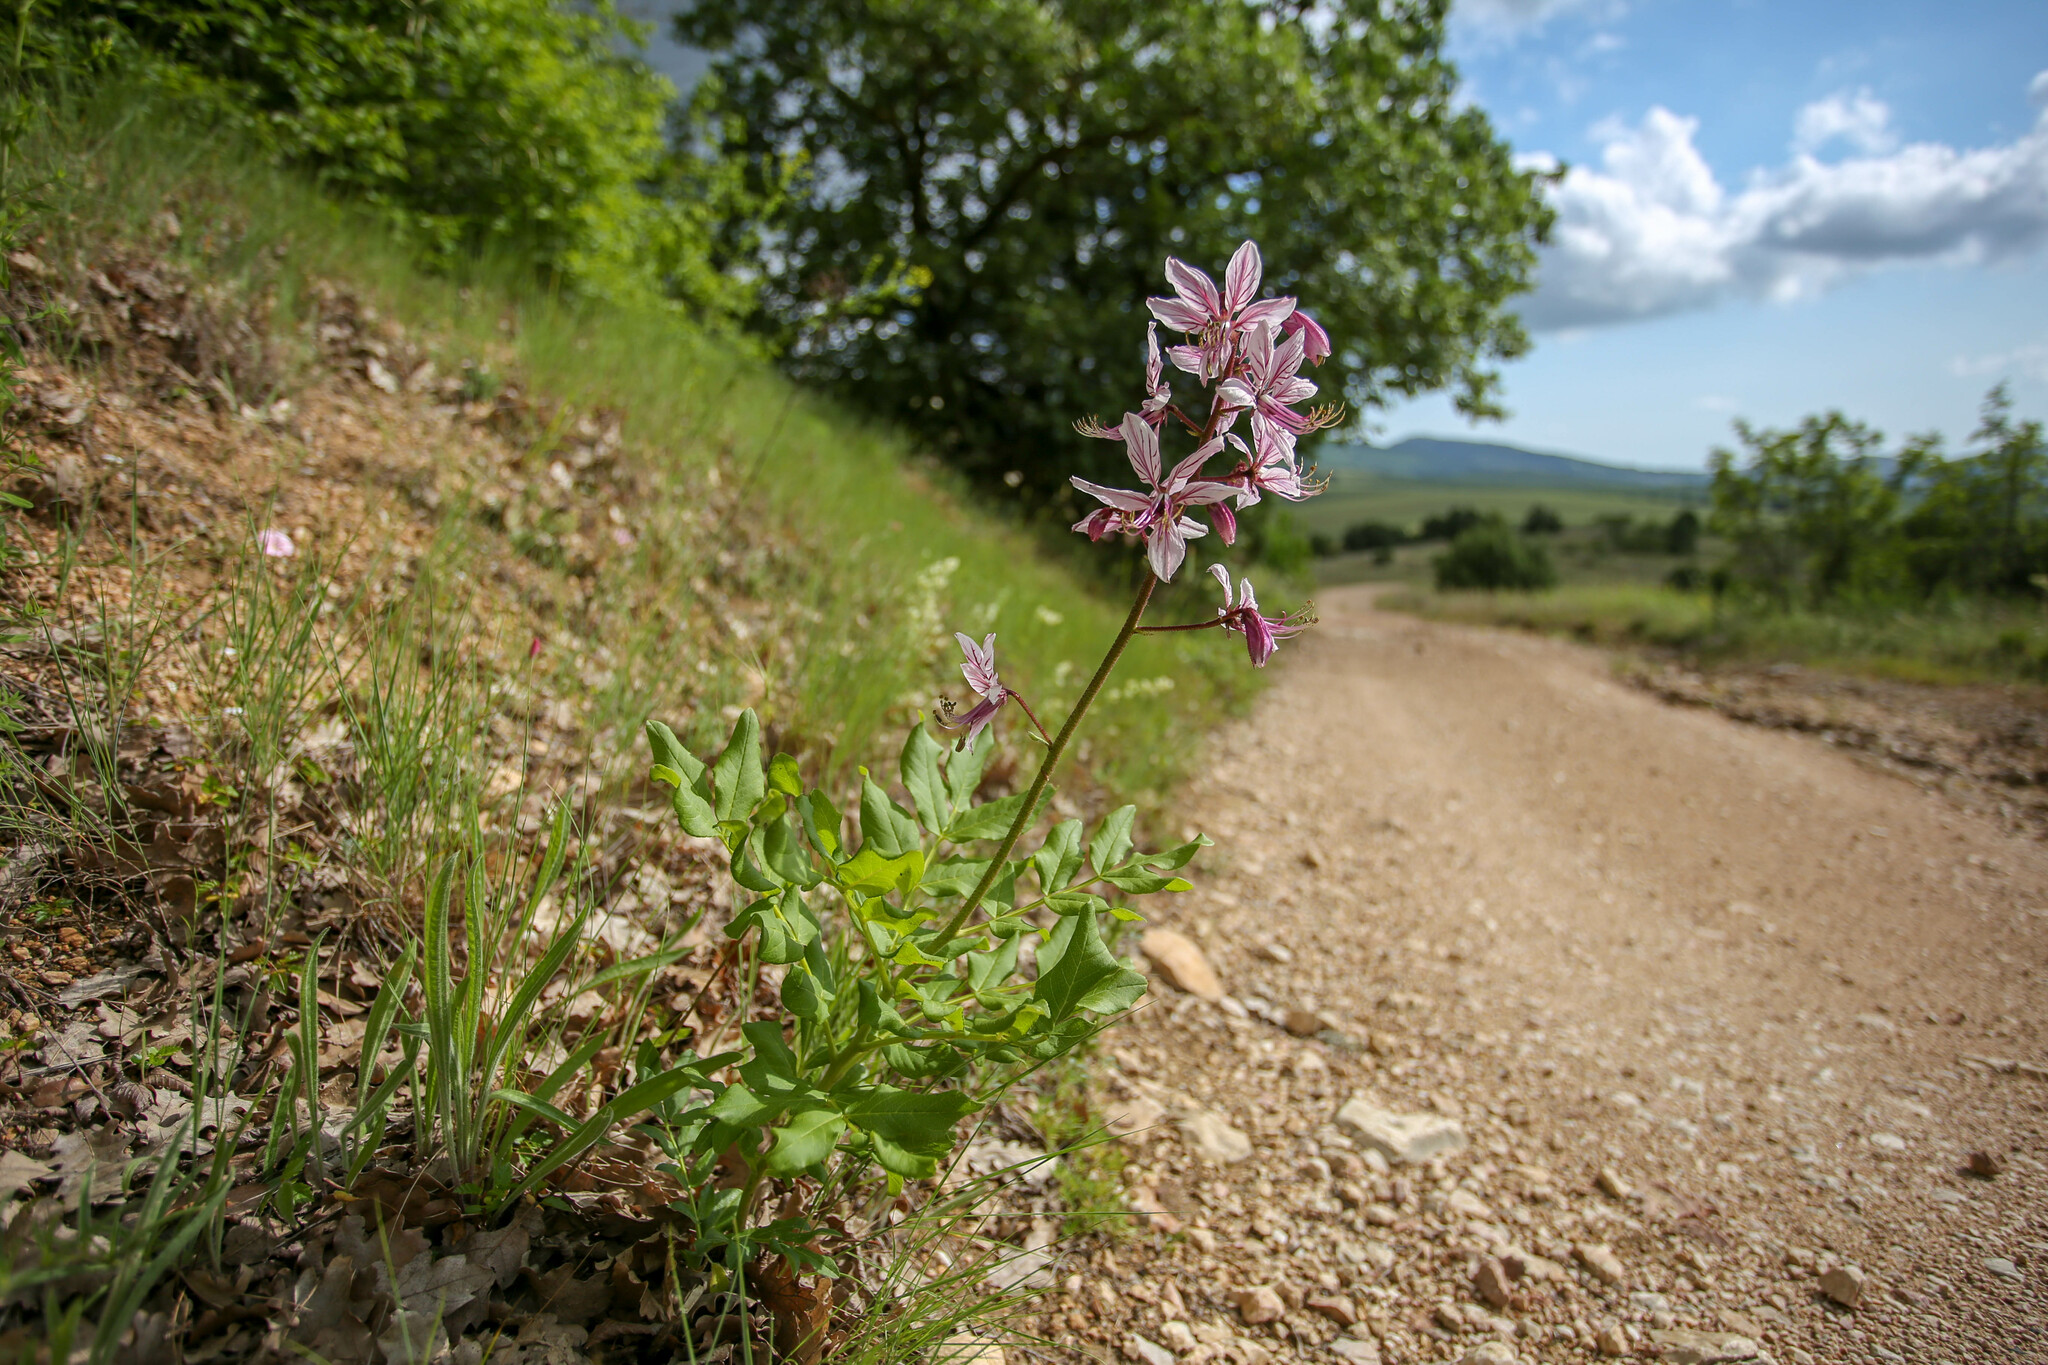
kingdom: Plantae
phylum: Tracheophyta
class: Magnoliopsida
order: Sapindales
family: Rutaceae
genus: Dictamnus
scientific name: Dictamnus albus
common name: Gasplant
